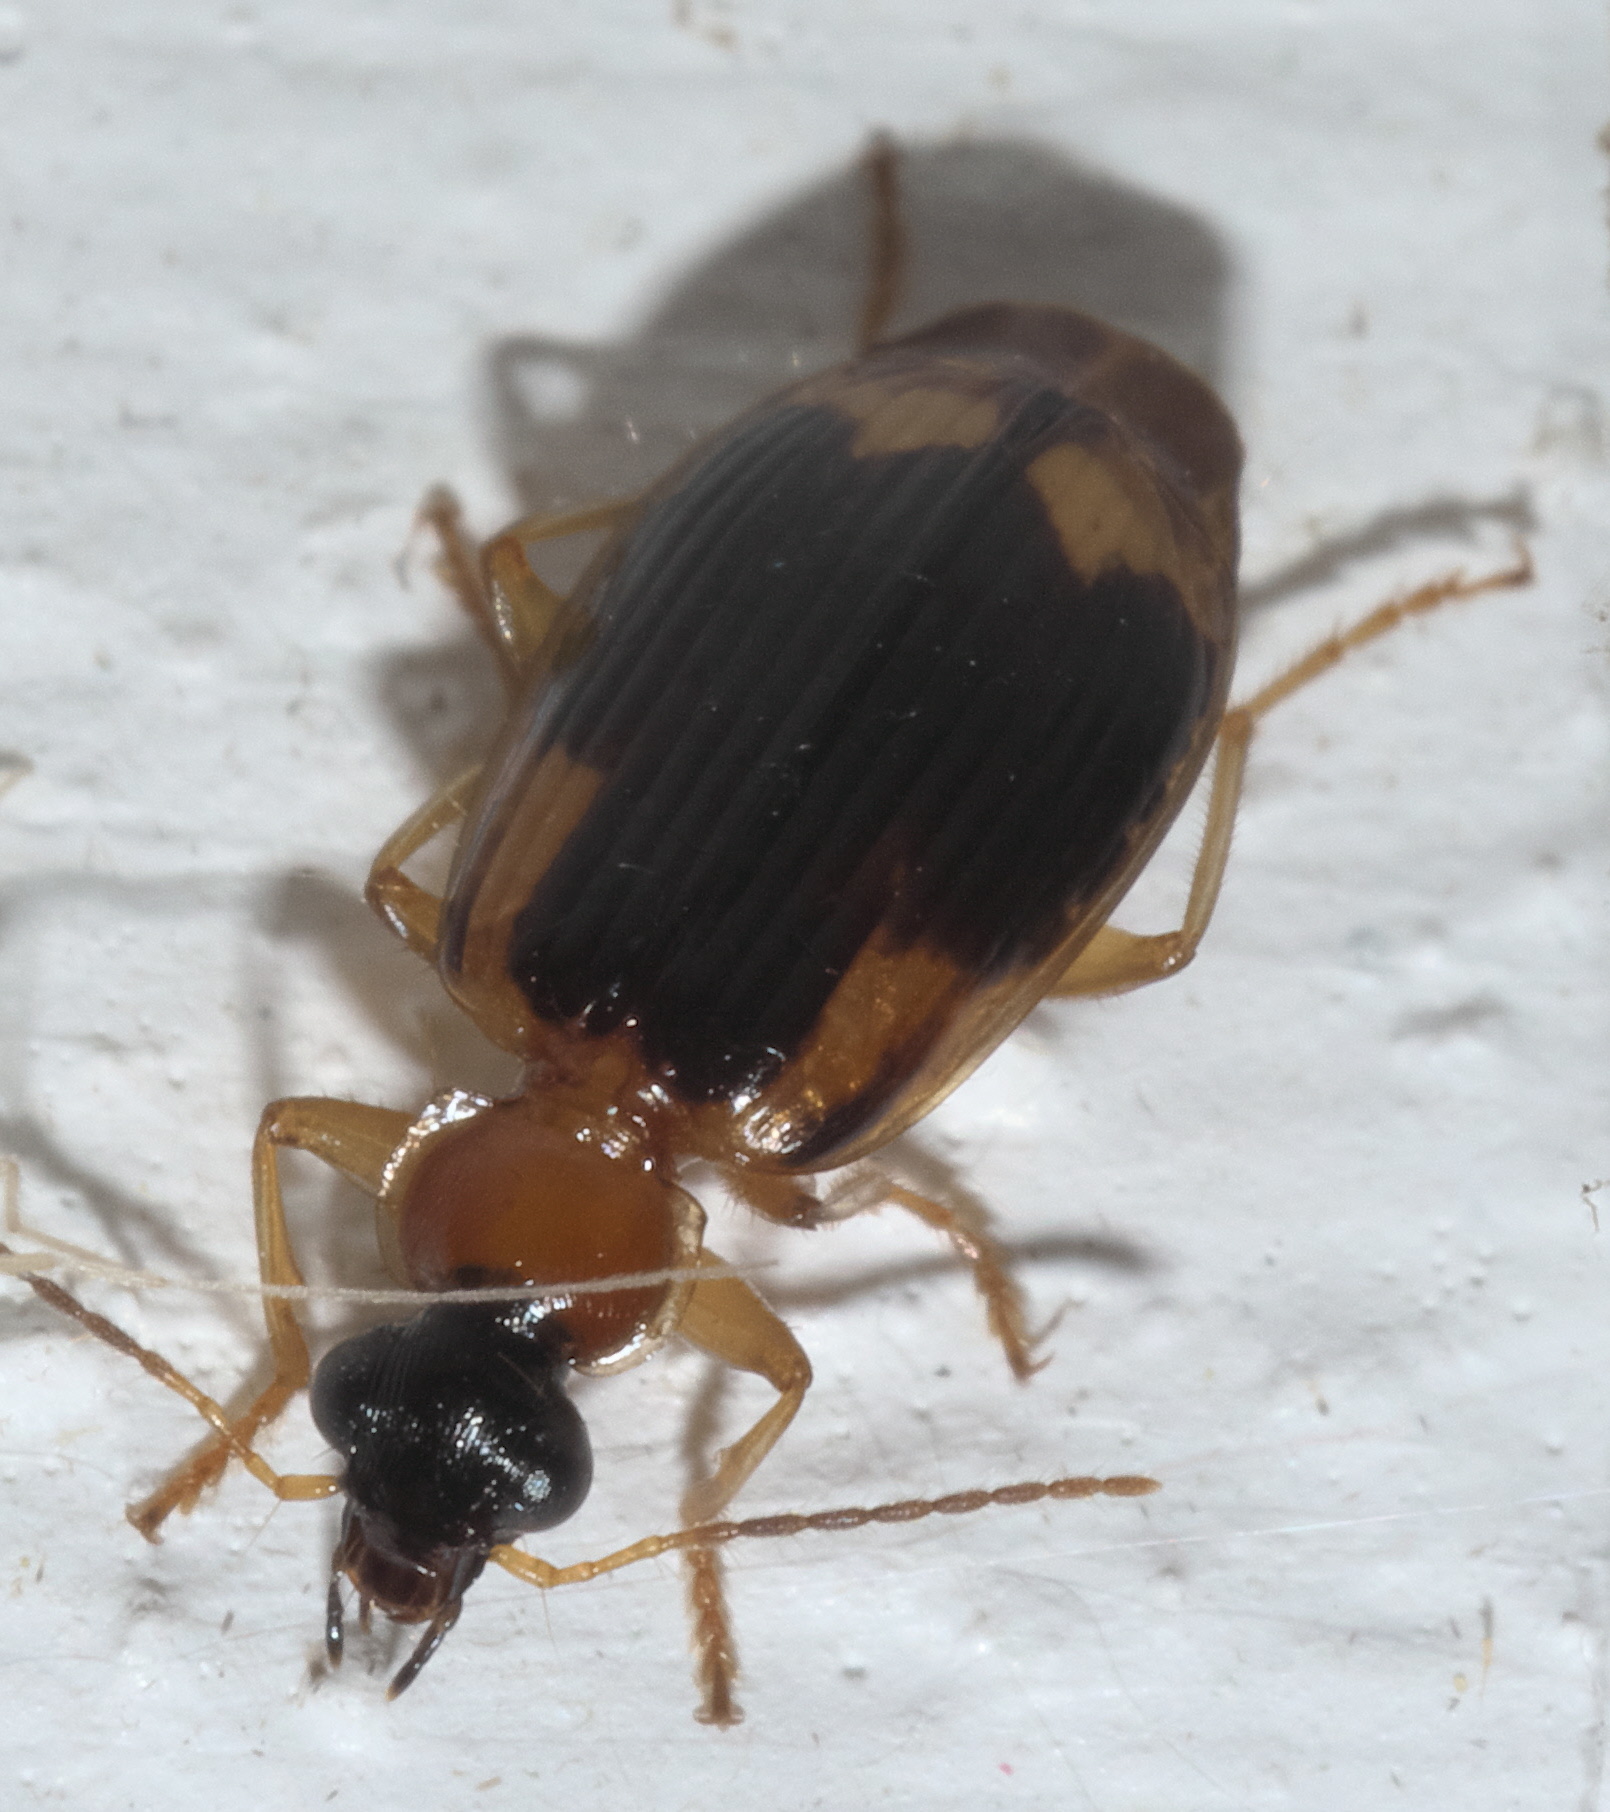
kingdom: Animalia
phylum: Arthropoda
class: Insecta
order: Coleoptera
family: Carabidae
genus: Lebia
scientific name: Lebia analis
